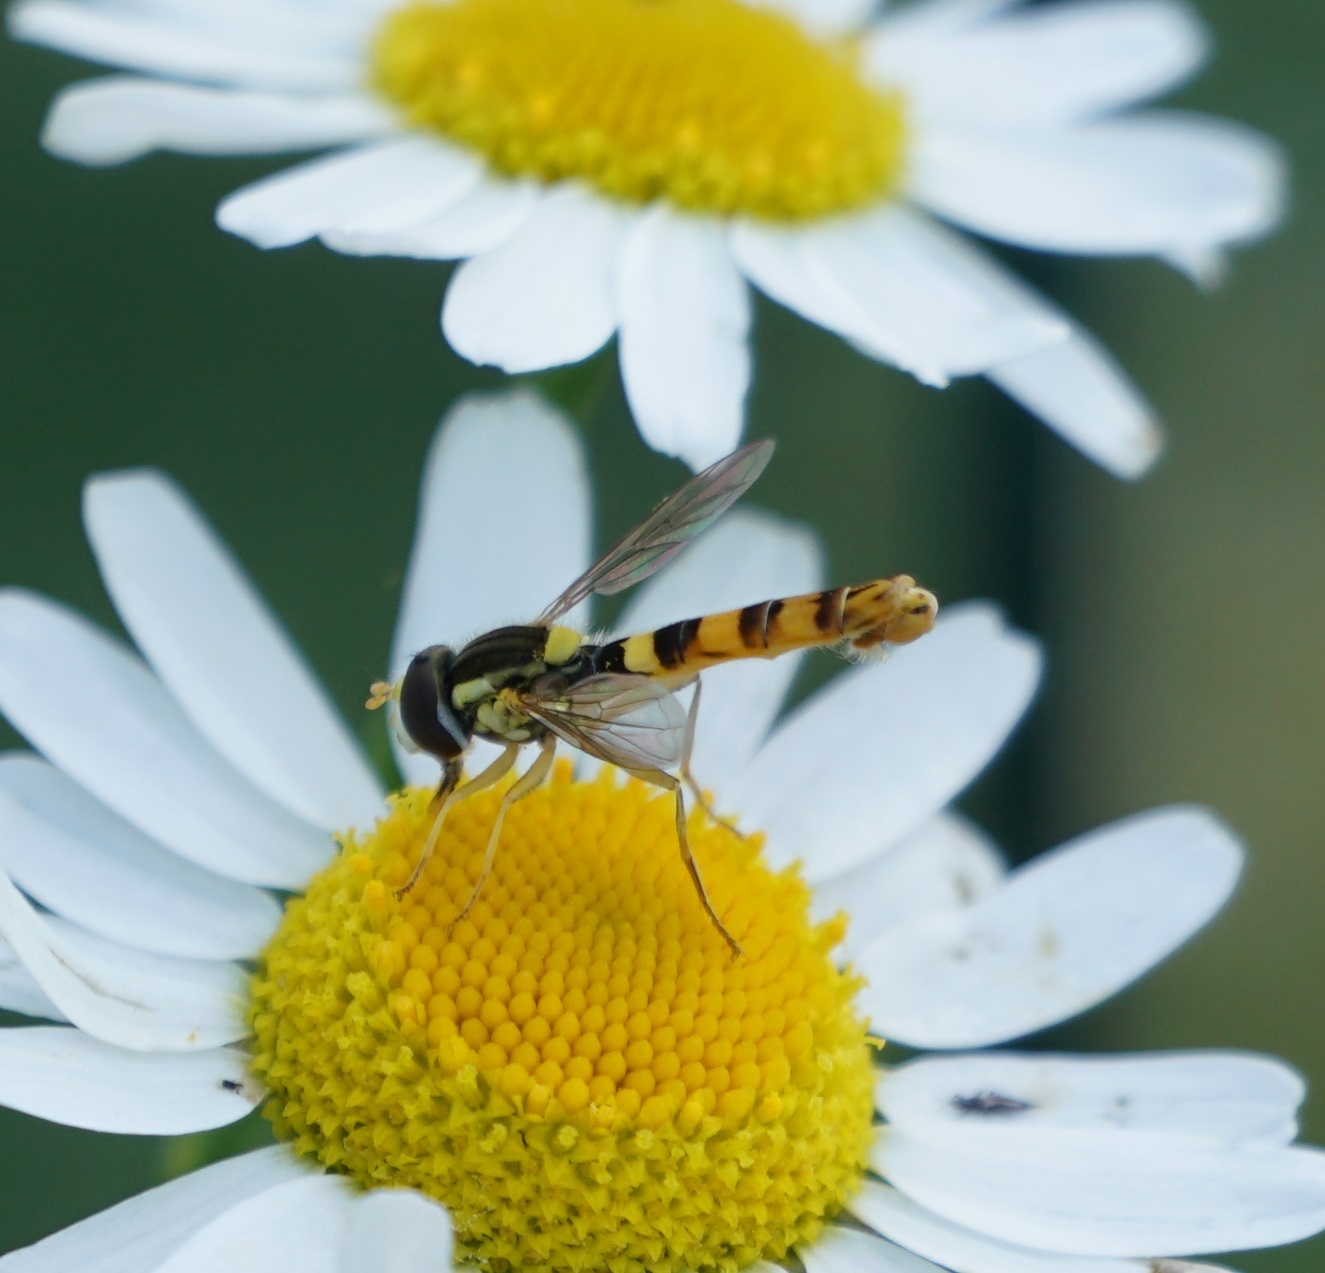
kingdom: Animalia
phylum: Arthropoda
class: Insecta
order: Diptera
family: Syrphidae
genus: Sphaerophoria
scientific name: Sphaerophoria scripta
